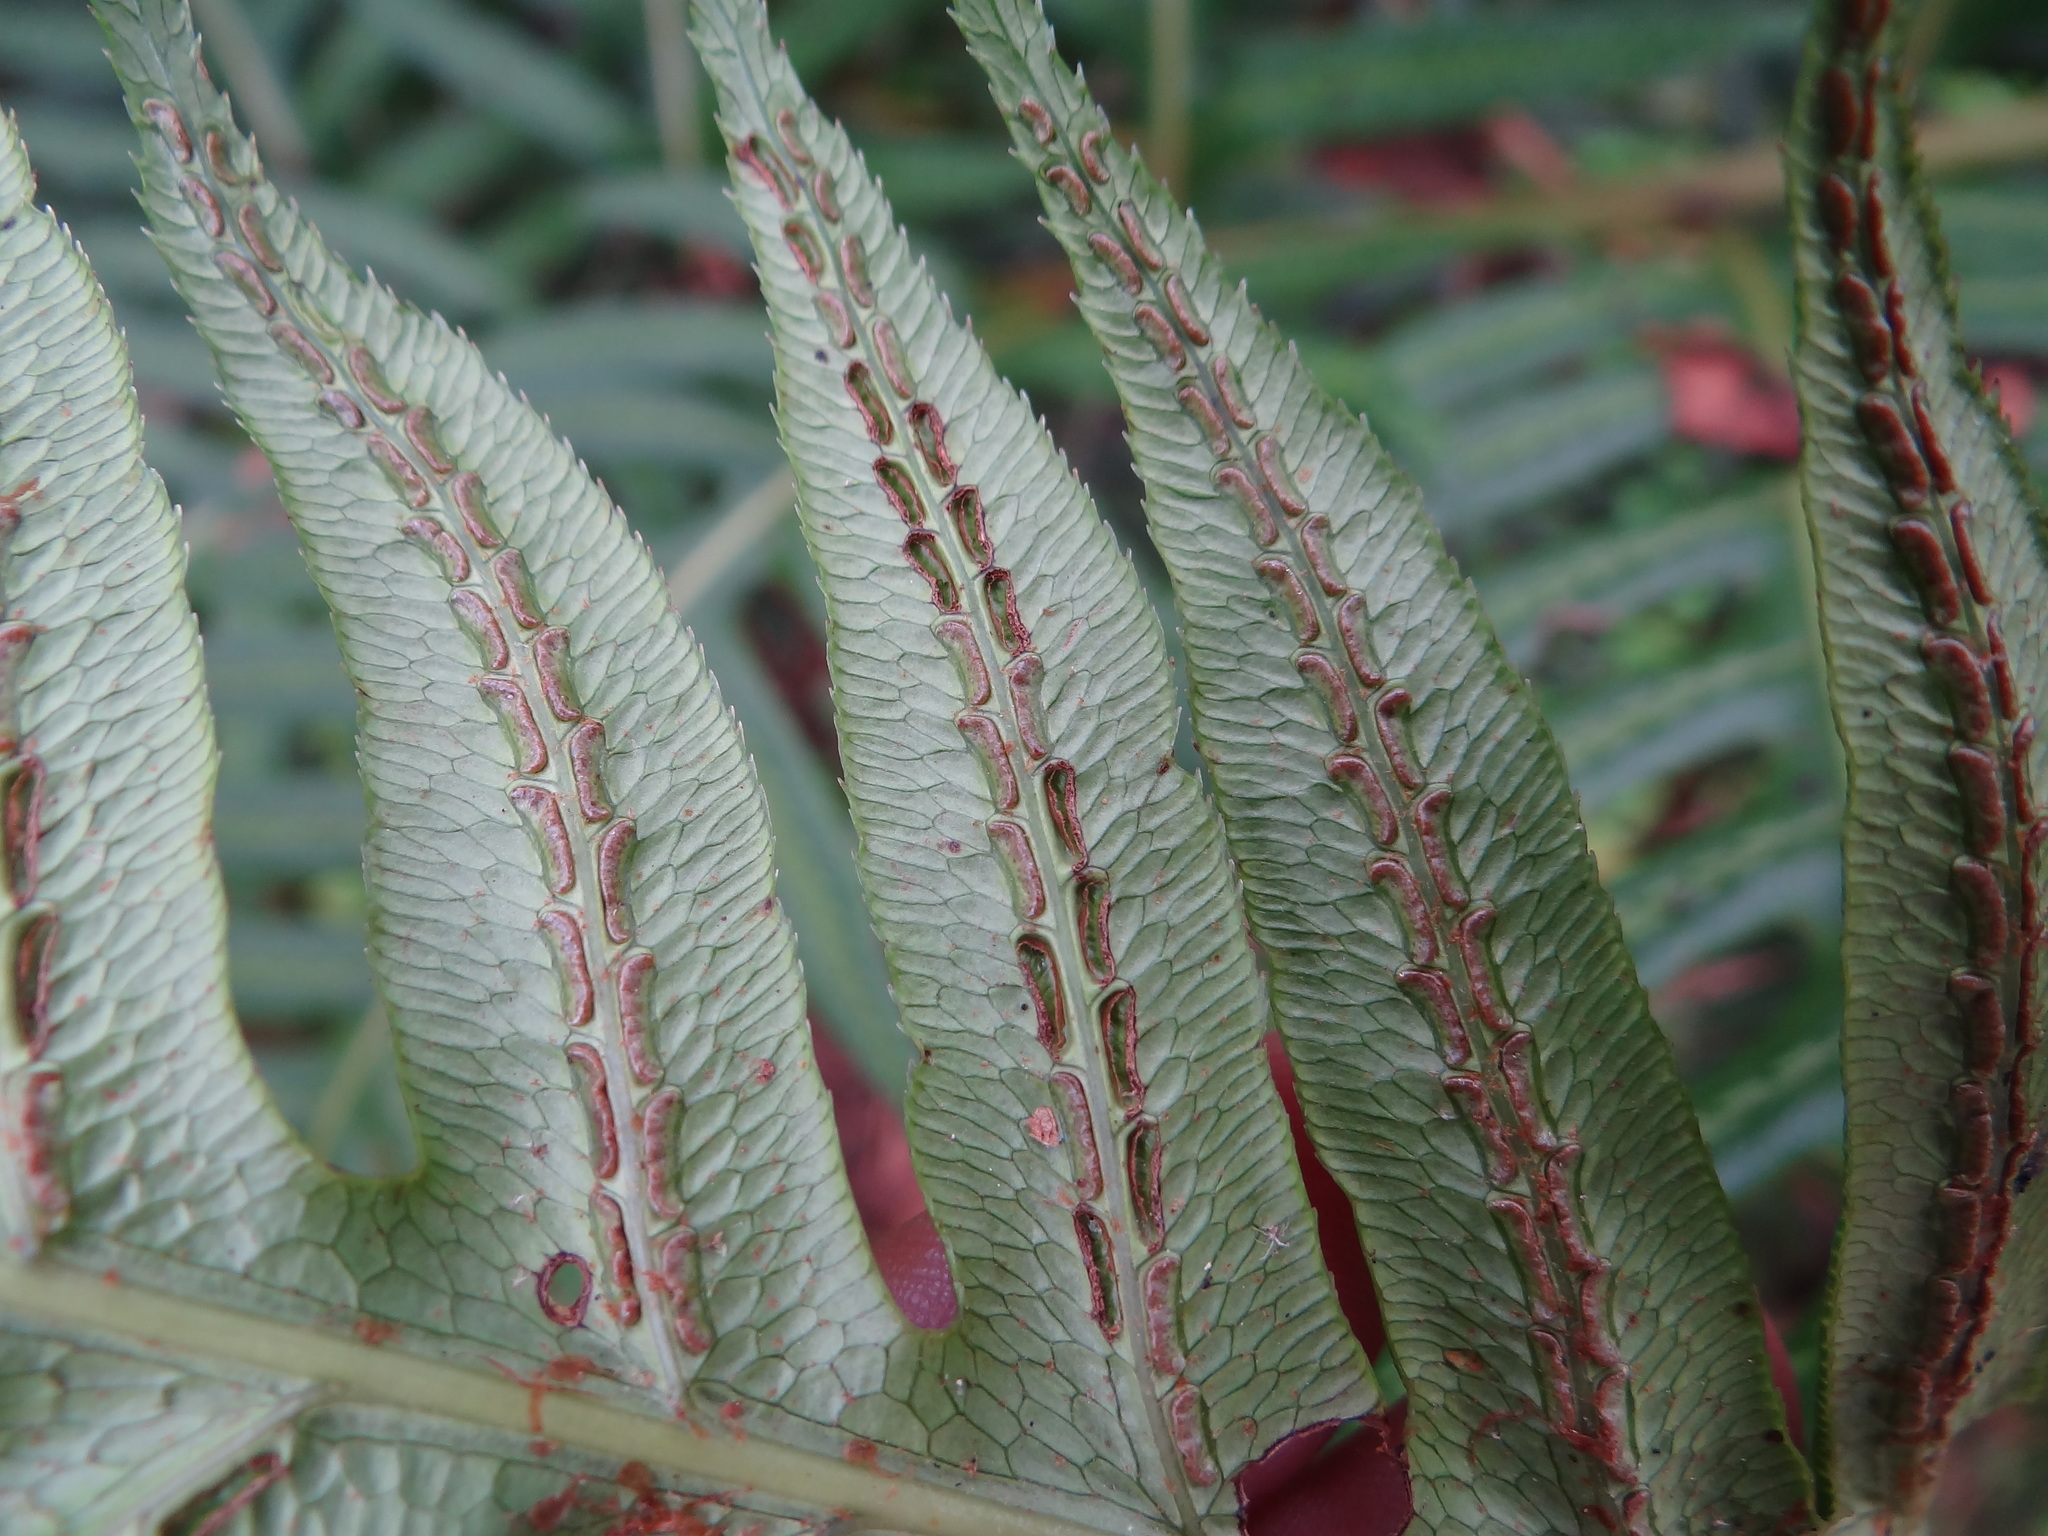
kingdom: Plantae
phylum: Tracheophyta
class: Polypodiopsida
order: Polypodiales
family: Blechnaceae
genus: Woodwardia
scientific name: Woodwardia unigemmata
